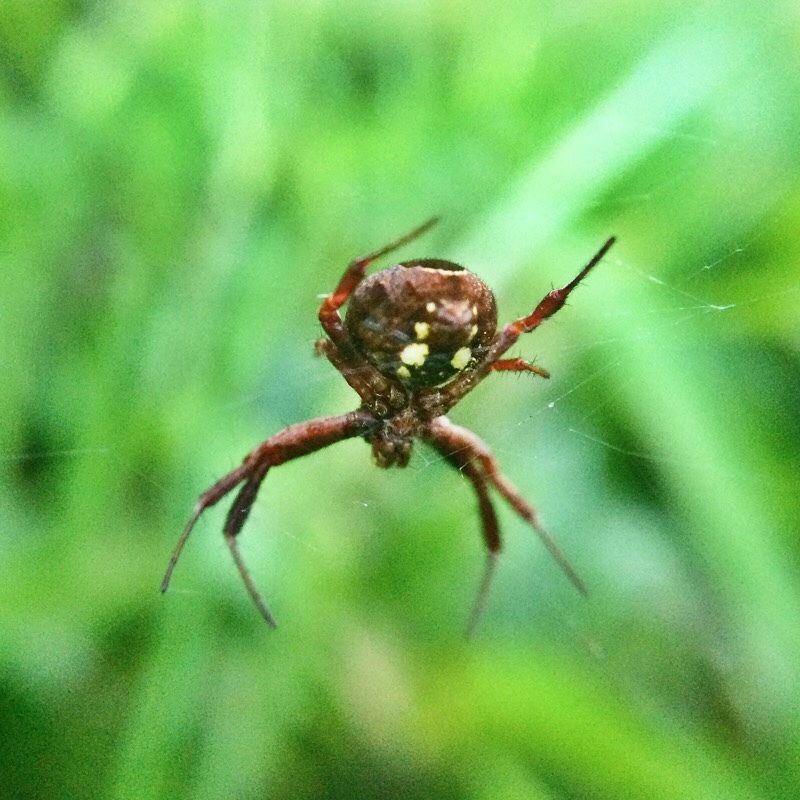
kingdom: Animalia
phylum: Arthropoda
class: Arachnida
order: Araneae
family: Araneidae
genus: Gea
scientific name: Gea infuscata
